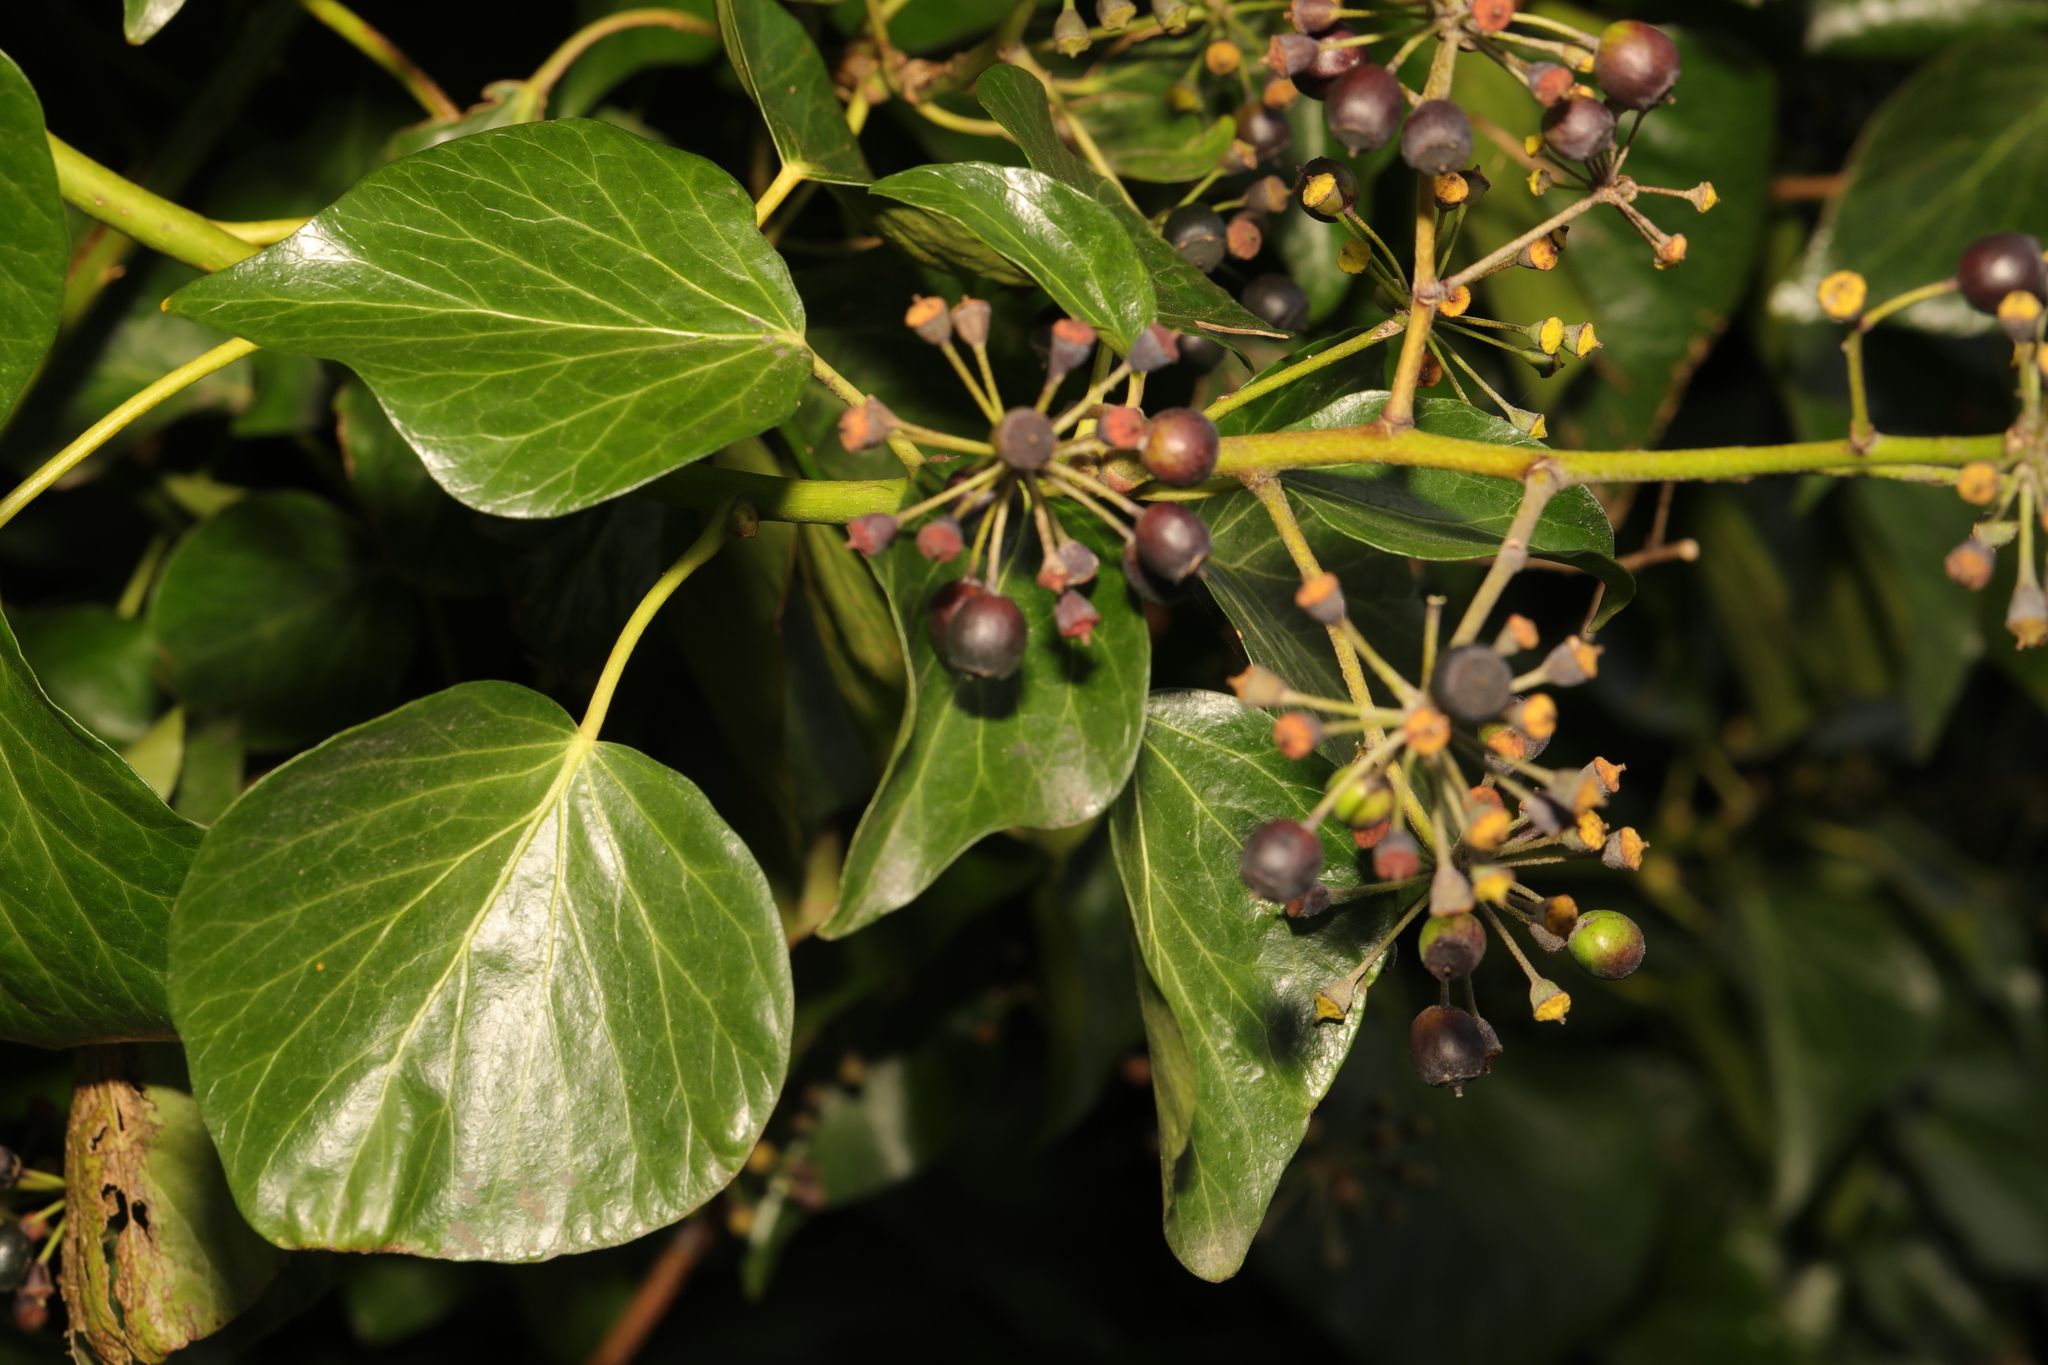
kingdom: Plantae
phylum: Tracheophyta
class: Magnoliopsida
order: Apiales
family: Araliaceae
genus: Hedera
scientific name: Hedera helix
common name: Ivy
